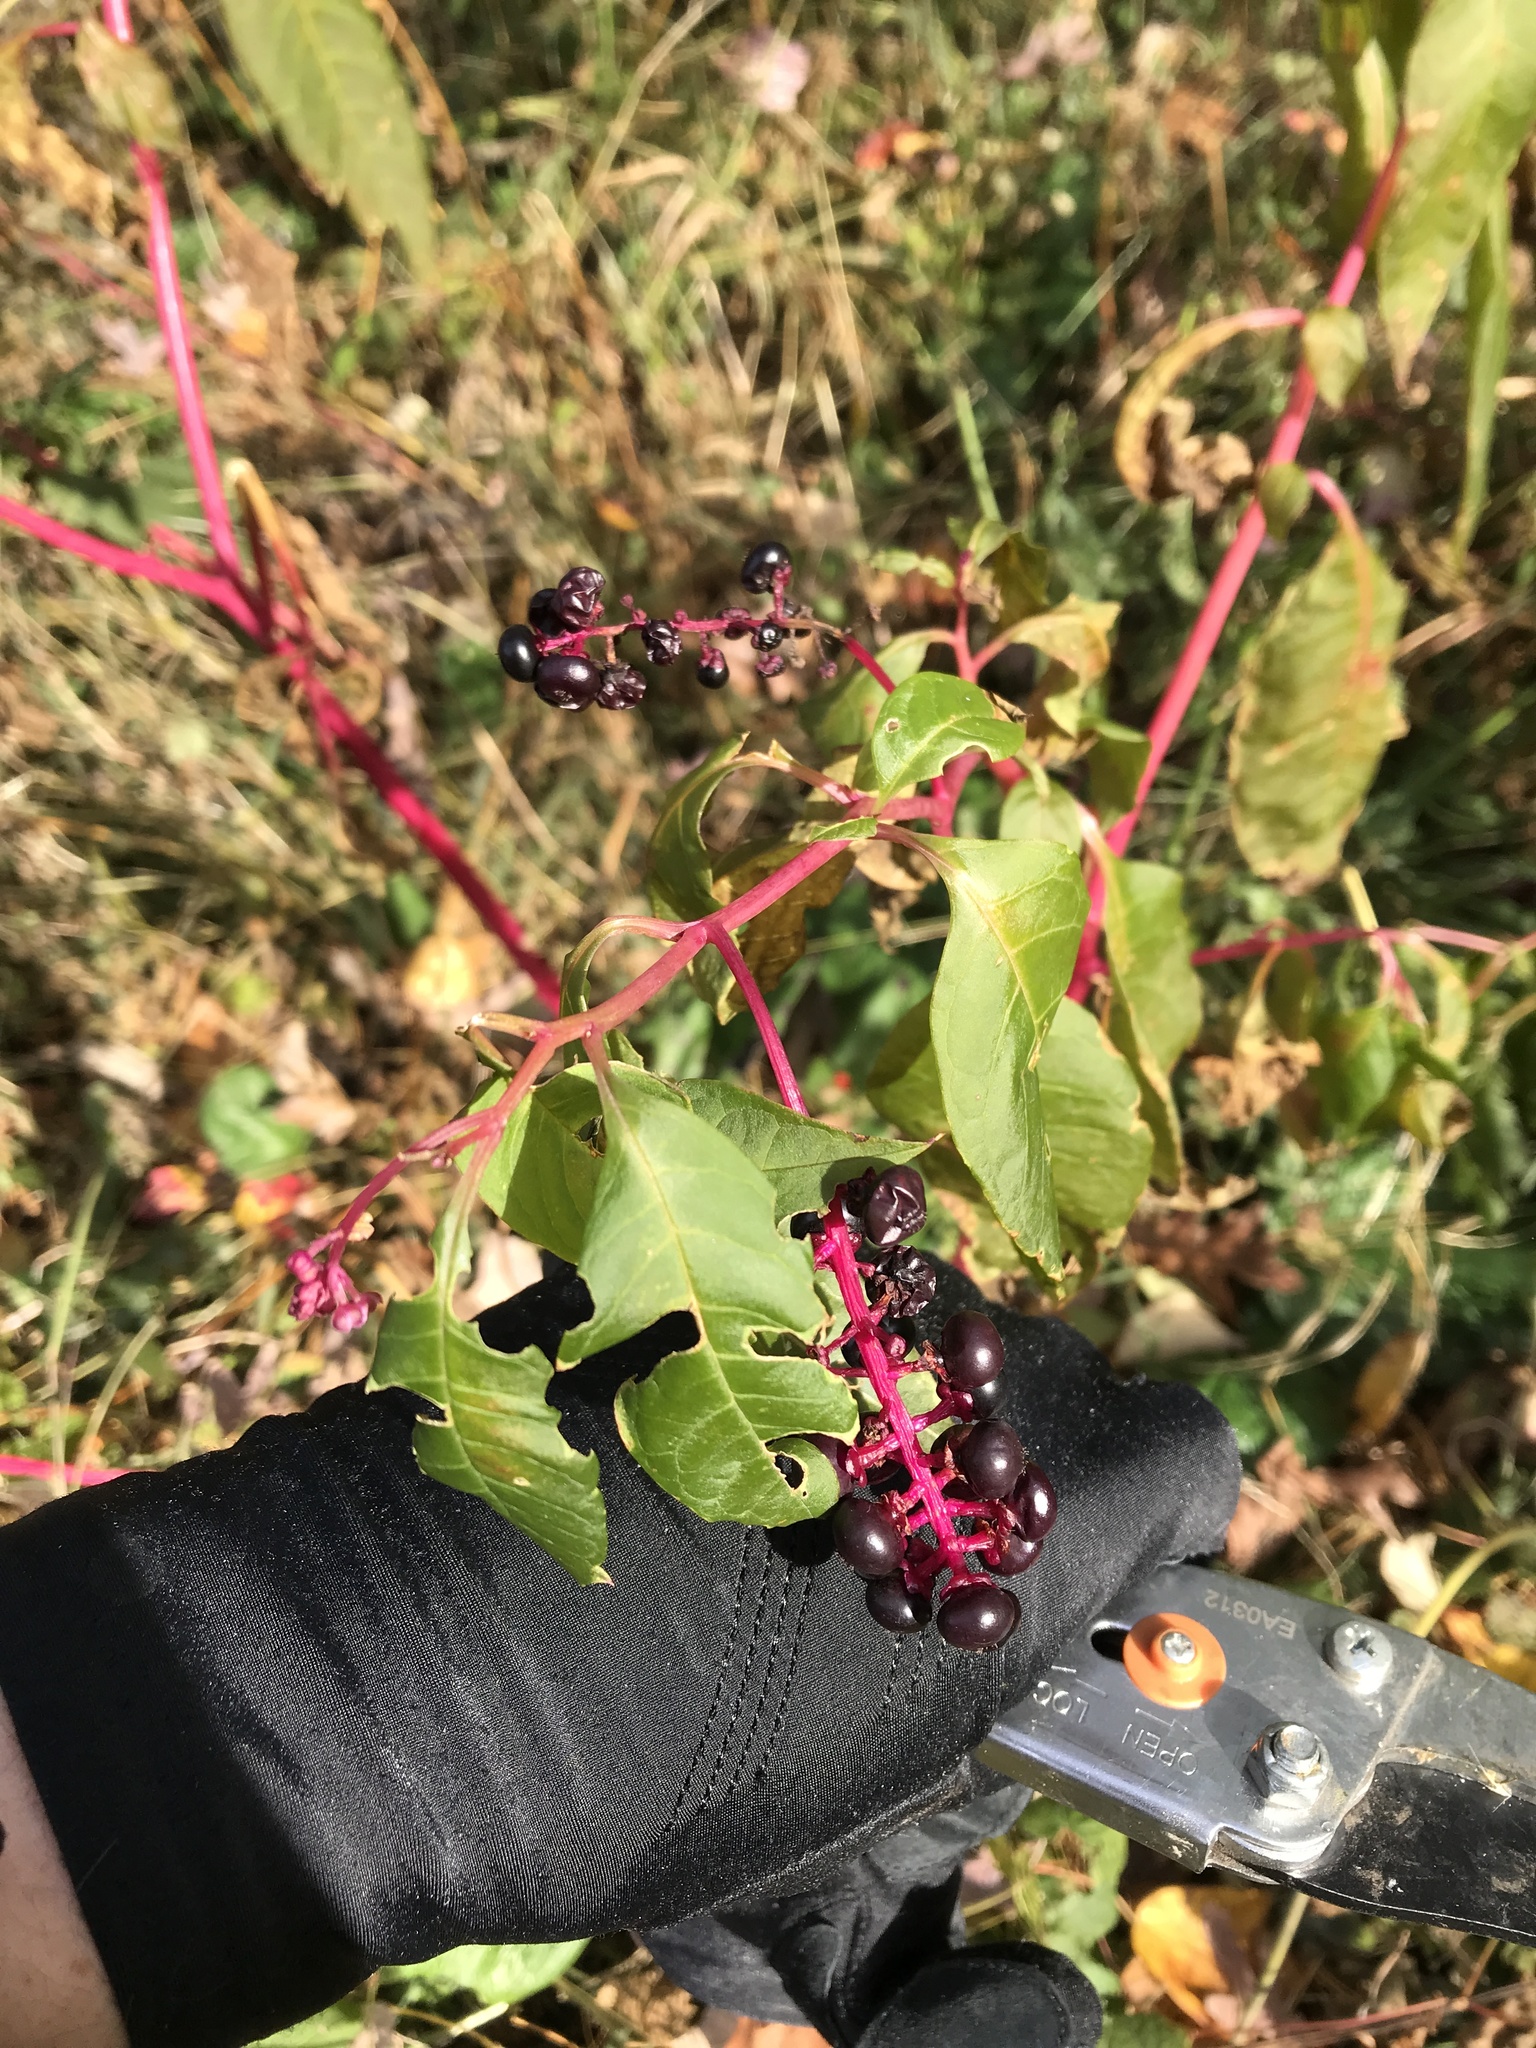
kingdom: Plantae
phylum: Tracheophyta
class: Magnoliopsida
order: Caryophyllales
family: Phytolaccaceae
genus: Phytolacca
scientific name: Phytolacca americana
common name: American pokeweed
